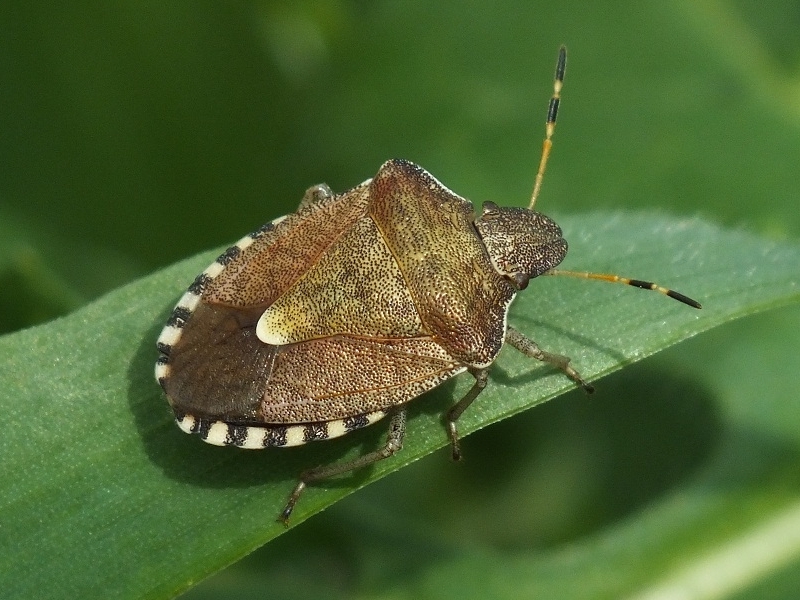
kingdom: Animalia
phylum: Arthropoda
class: Insecta
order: Hemiptera
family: Pentatomidae
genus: Holcostethus
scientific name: Holcostethus strictus
